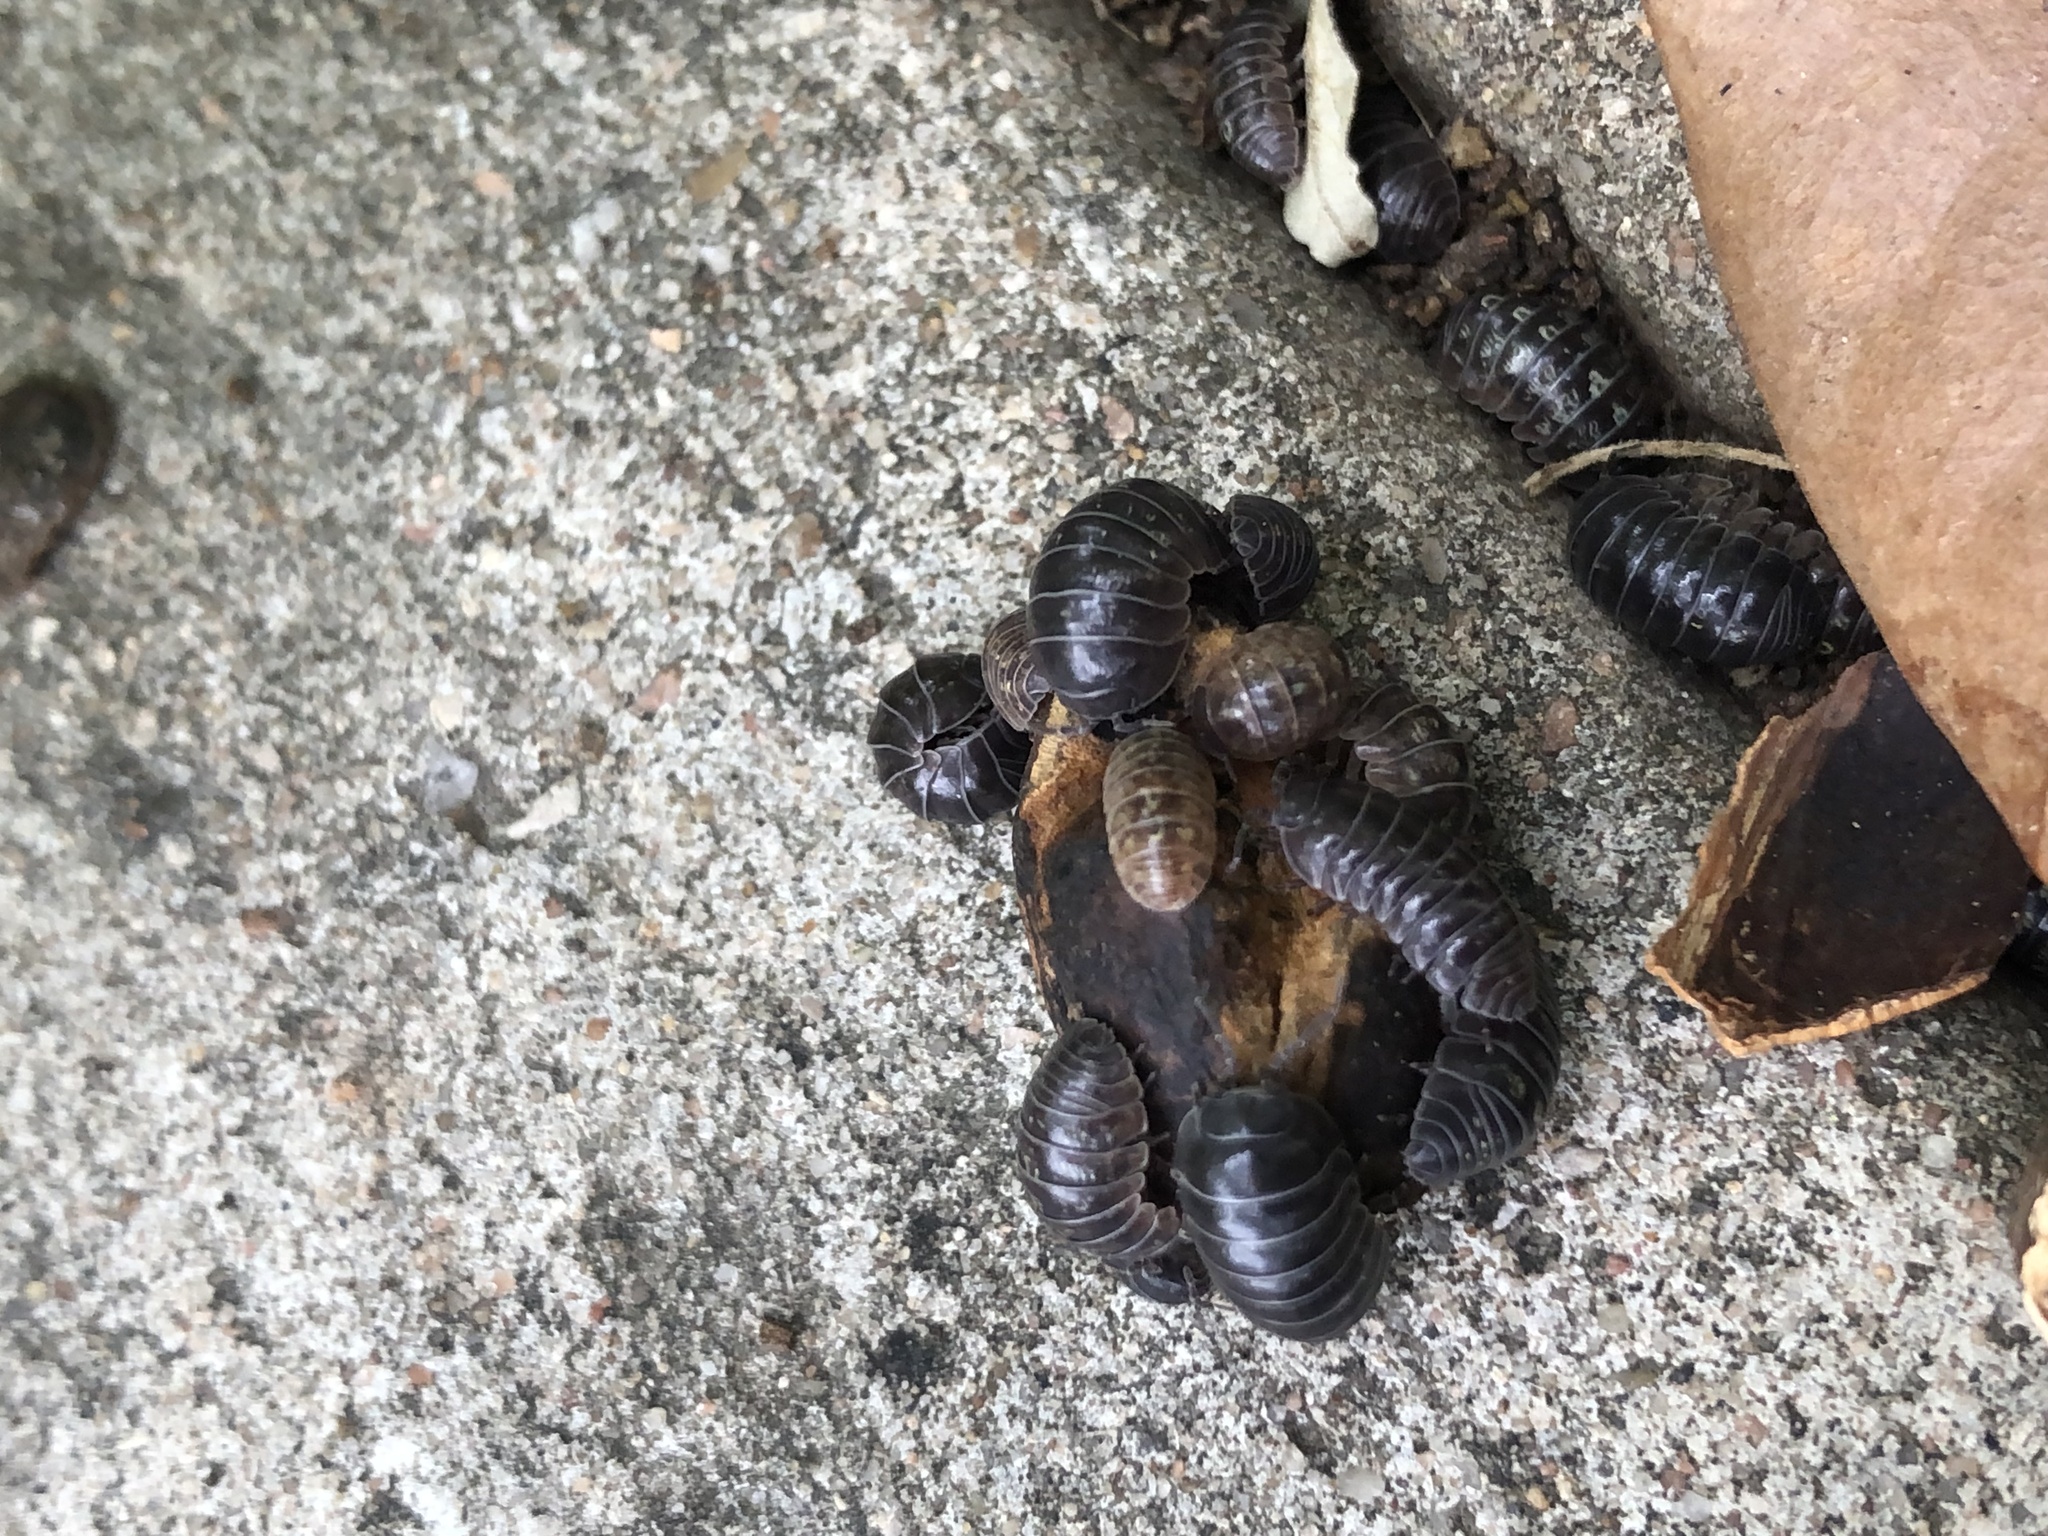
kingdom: Animalia
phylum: Arthropoda
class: Malacostraca
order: Isopoda
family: Armadillidiidae
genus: Armadillidium
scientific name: Armadillidium vulgare
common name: Common pill woodlouse
